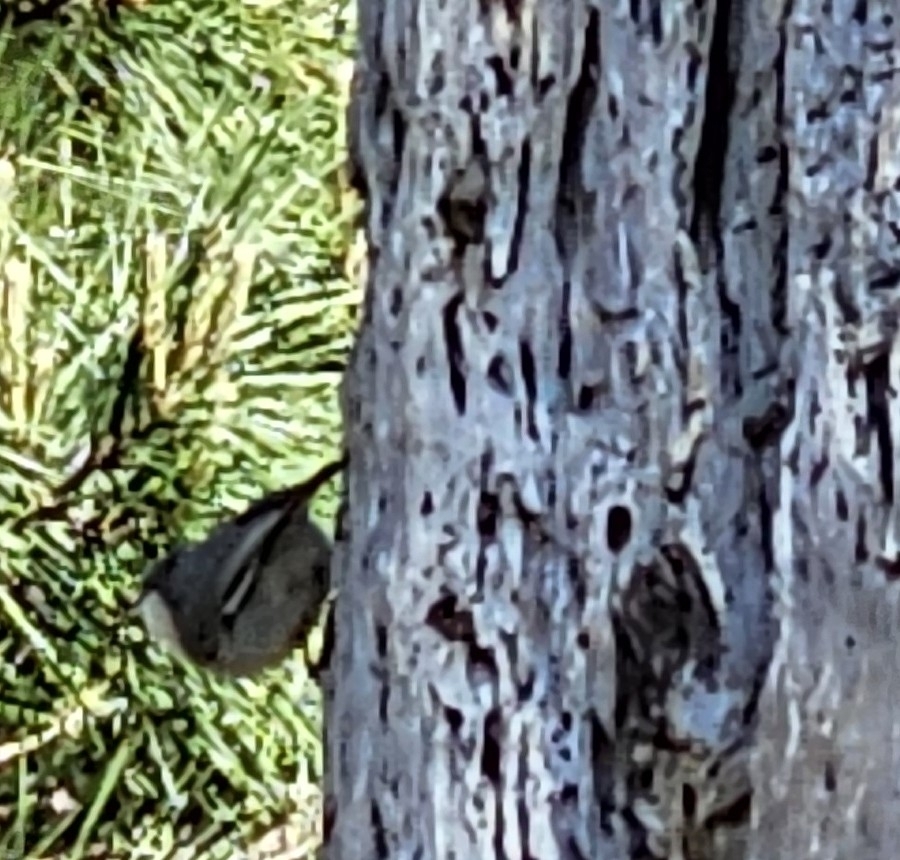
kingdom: Animalia
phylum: Chordata
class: Aves
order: Passeriformes
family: Sittidae
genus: Sitta
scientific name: Sitta pygmaea
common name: Pygmy nuthatch
